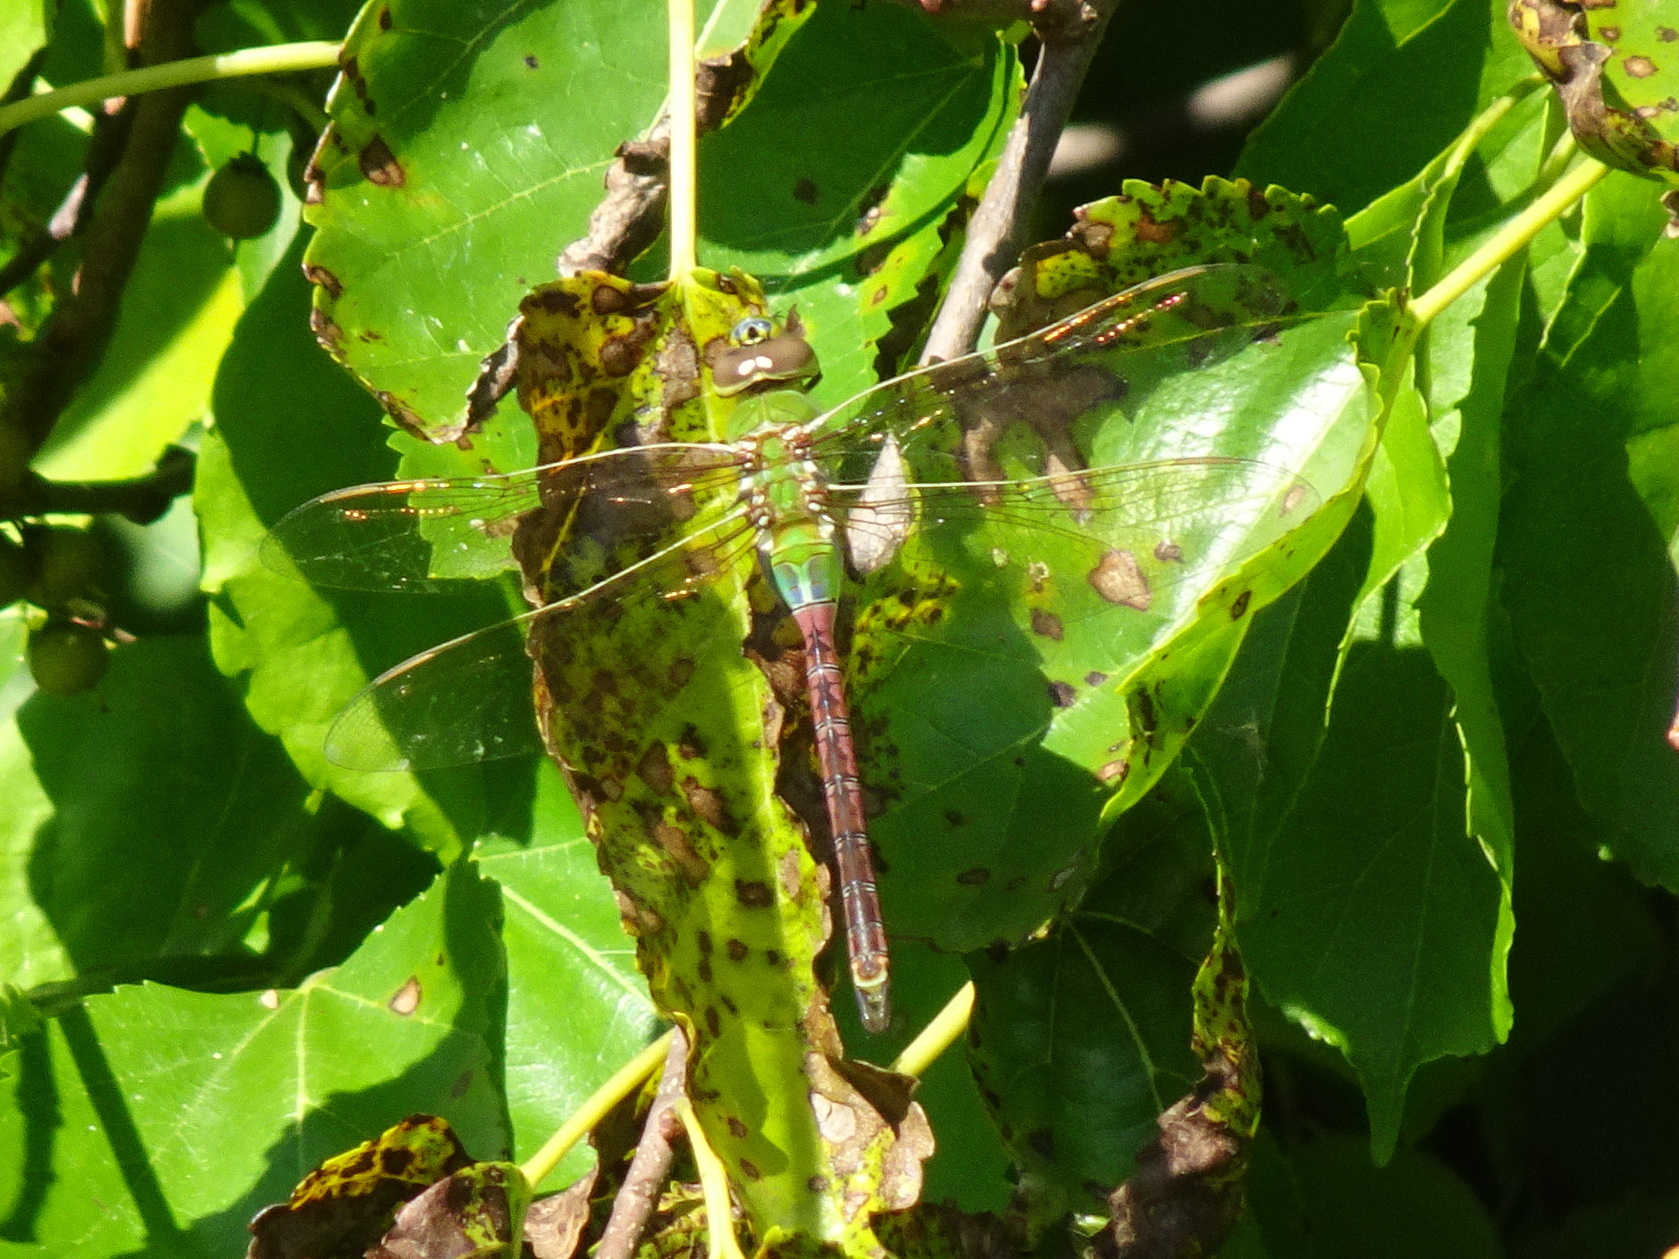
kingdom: Animalia
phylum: Arthropoda
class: Insecta
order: Odonata
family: Aeshnidae
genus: Anax
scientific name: Anax junius
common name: Common green darner
